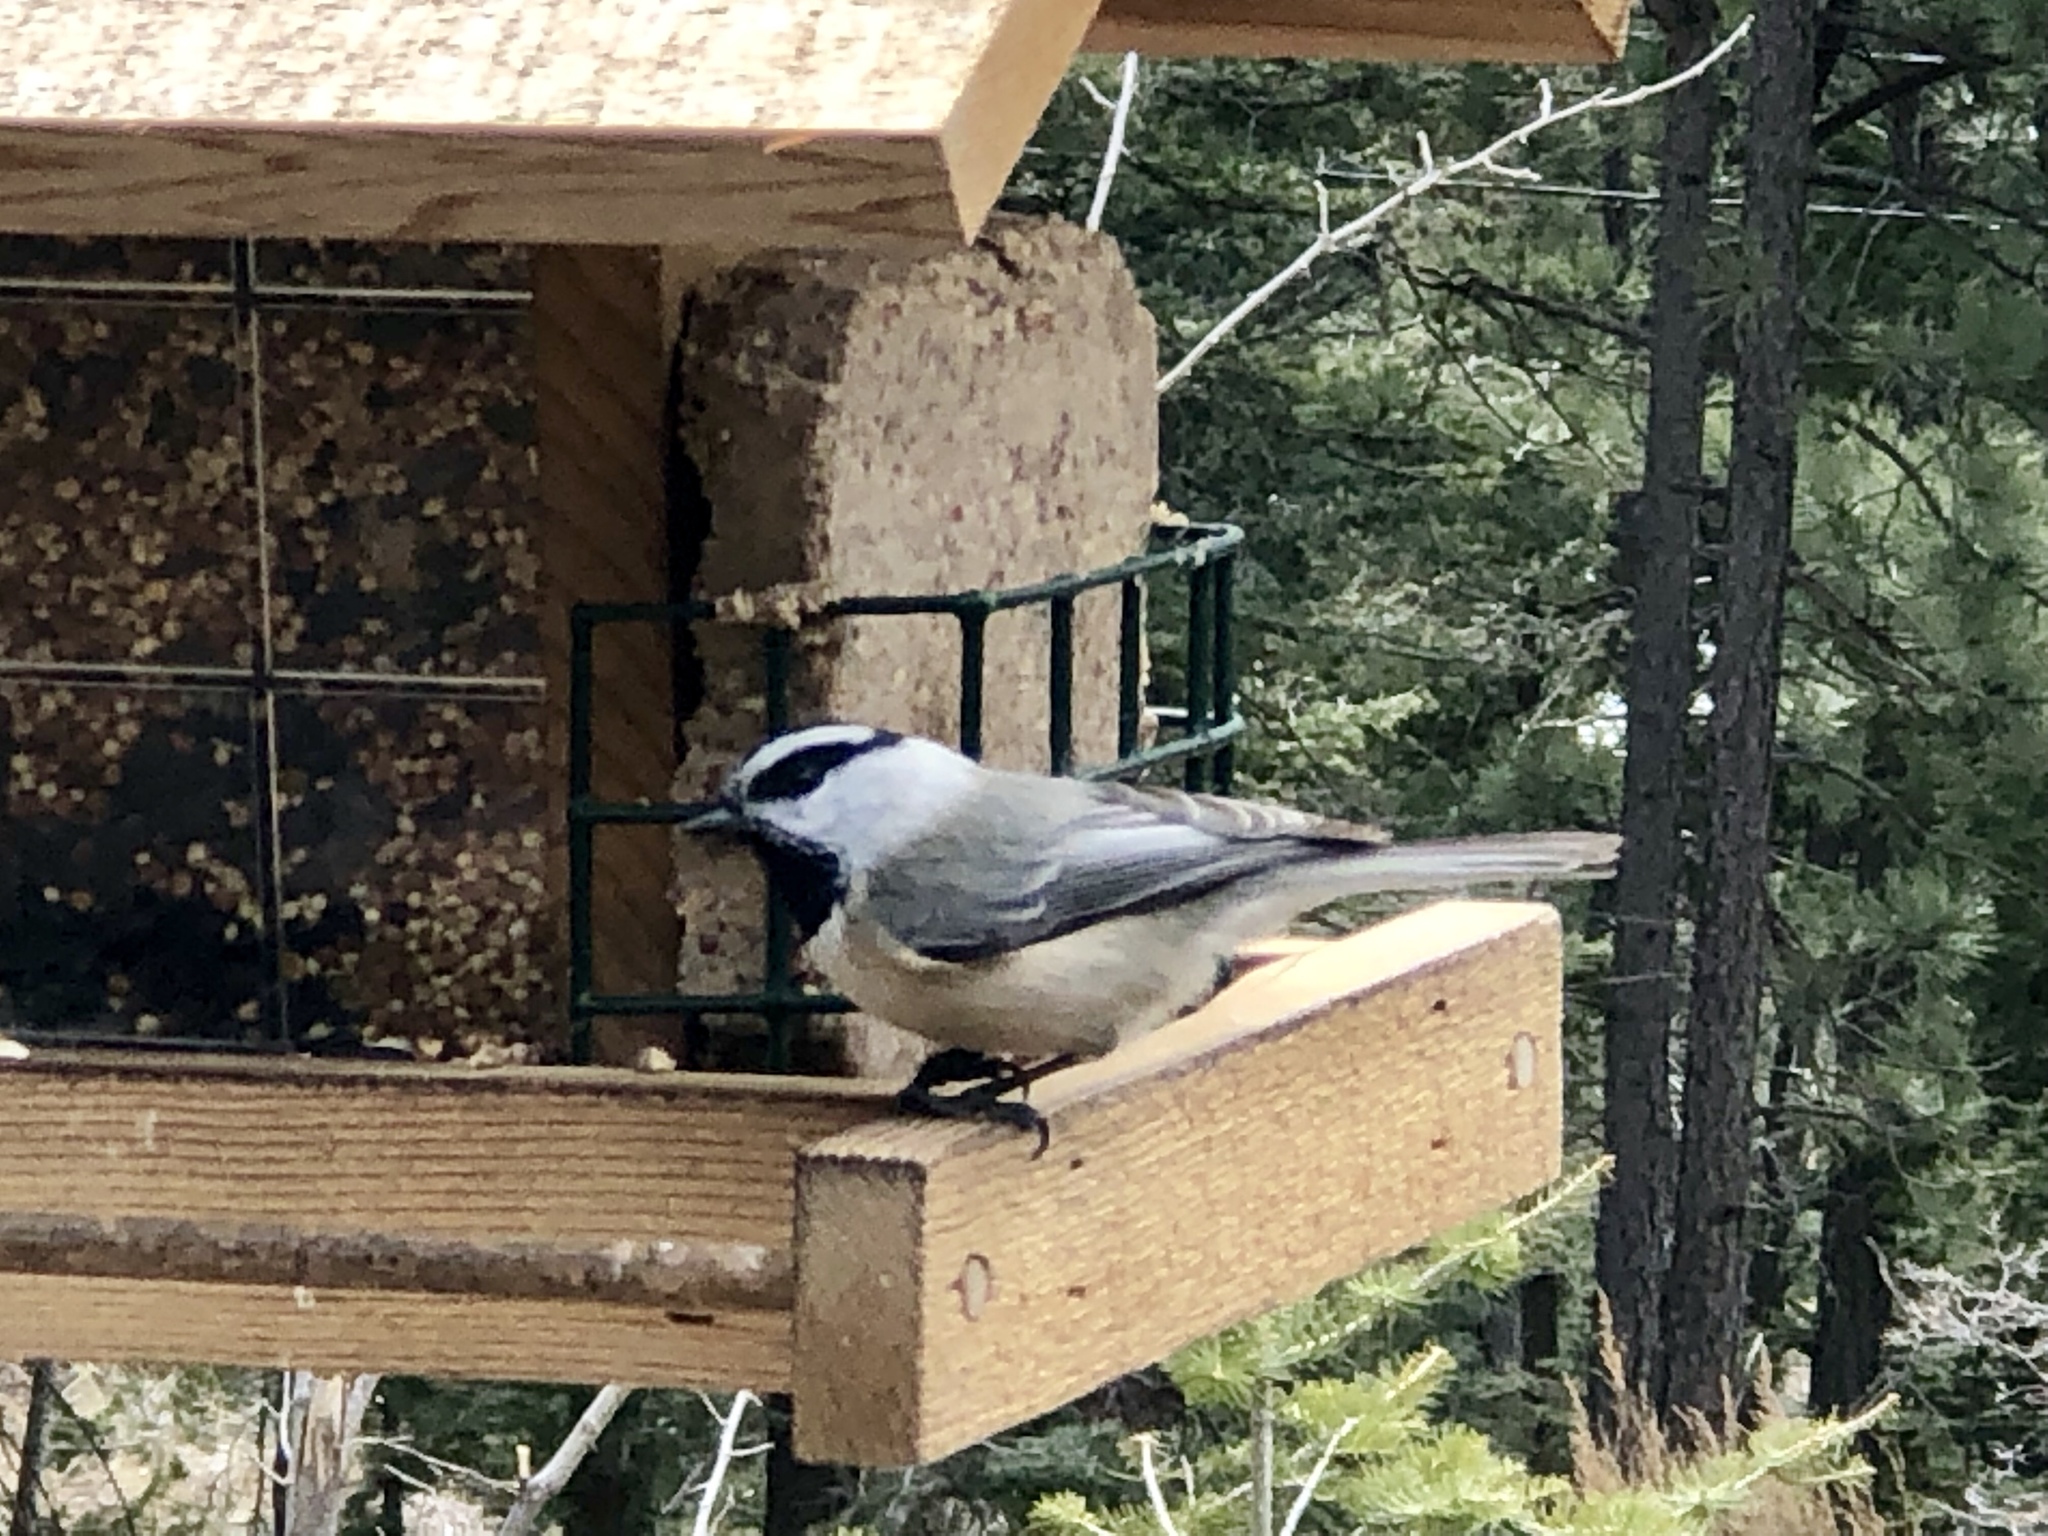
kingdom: Animalia
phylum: Chordata
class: Aves
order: Passeriformes
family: Paridae
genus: Poecile
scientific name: Poecile gambeli
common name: Mountain chickadee
